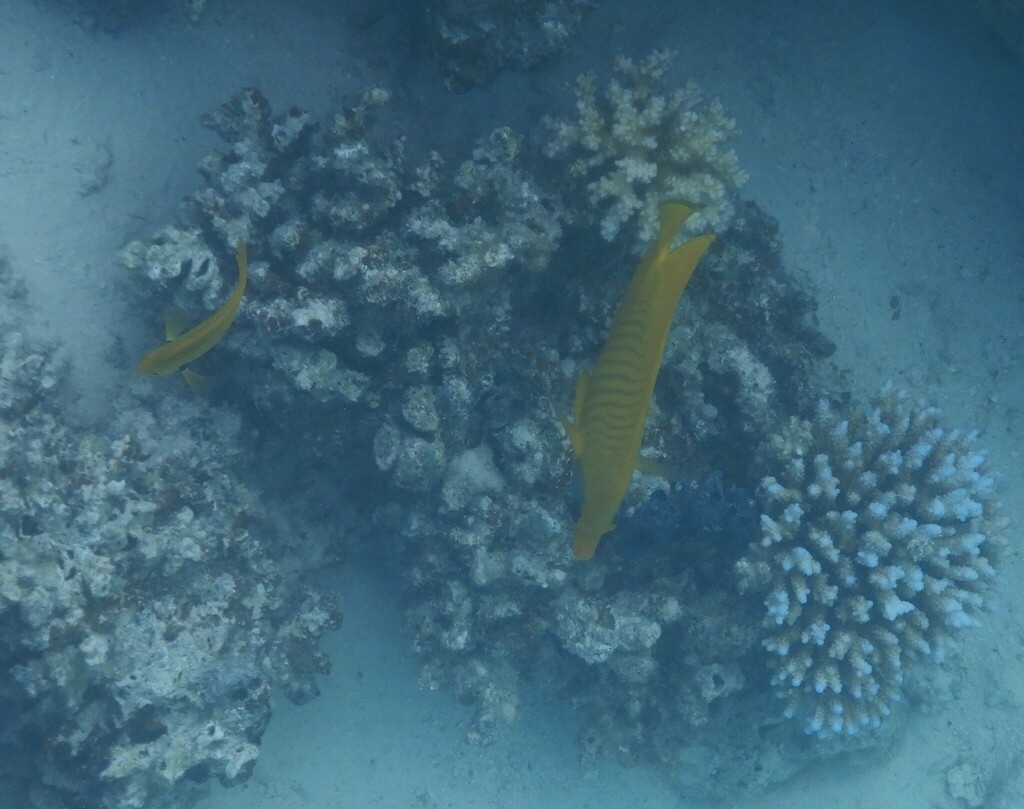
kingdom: Animalia
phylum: Chordata
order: Perciformes
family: Chaetodontidae
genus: Chaetodon
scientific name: Chaetodon semilarvatus
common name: Golden butterflyfish
